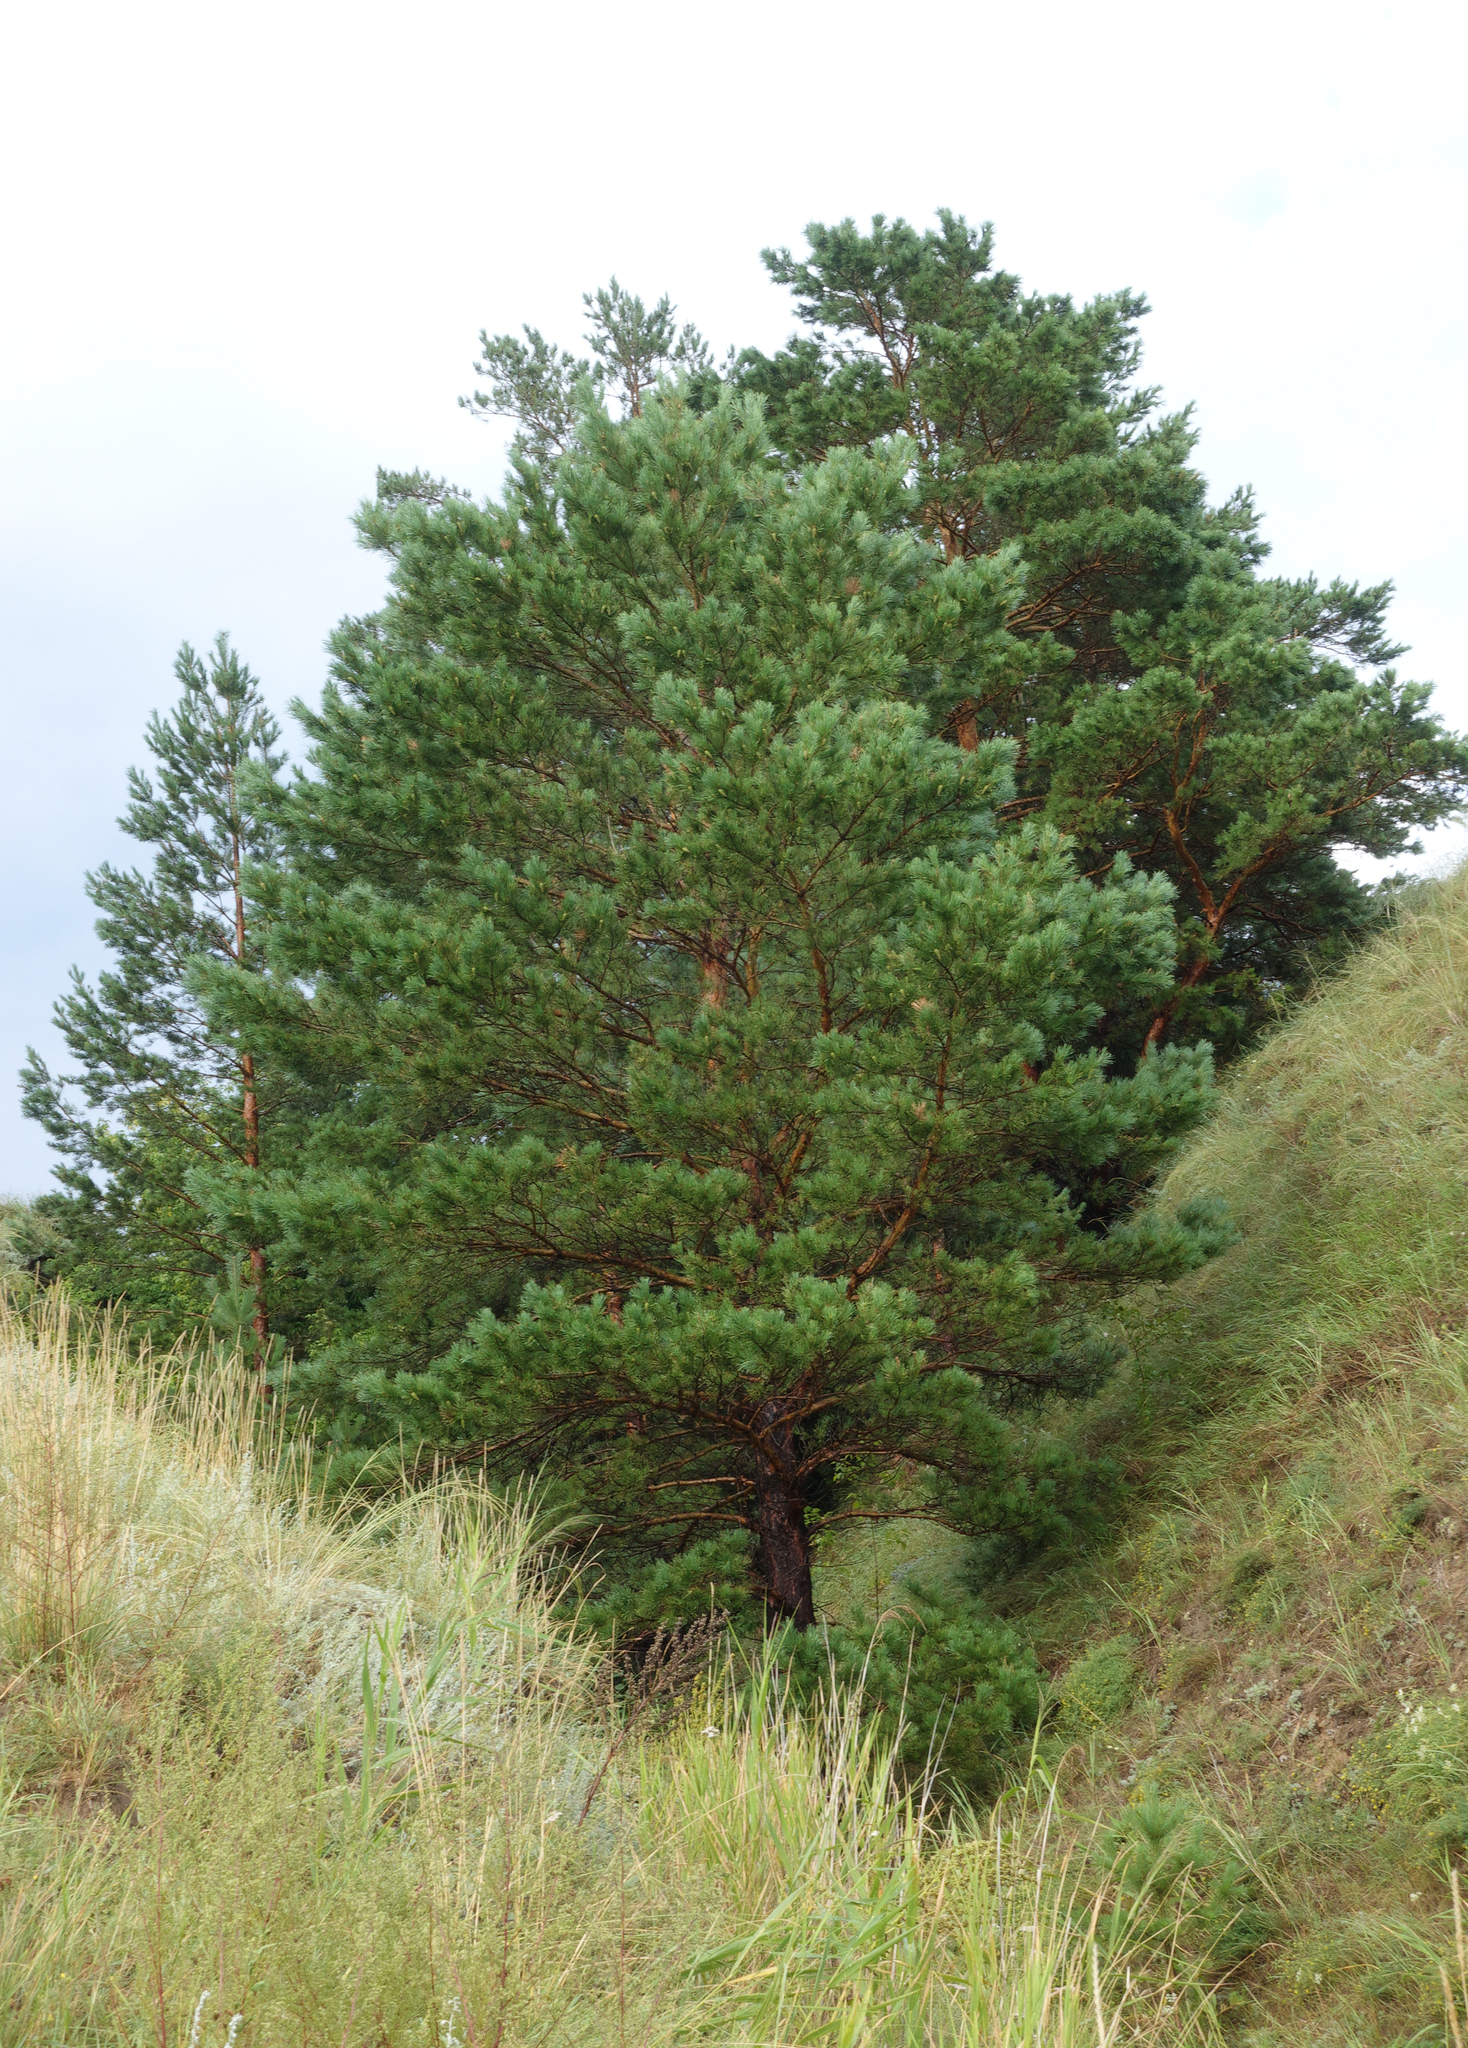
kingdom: Plantae
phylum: Tracheophyta
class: Pinopsida
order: Pinales
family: Pinaceae
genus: Pinus
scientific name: Pinus sylvestris
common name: Scots pine
